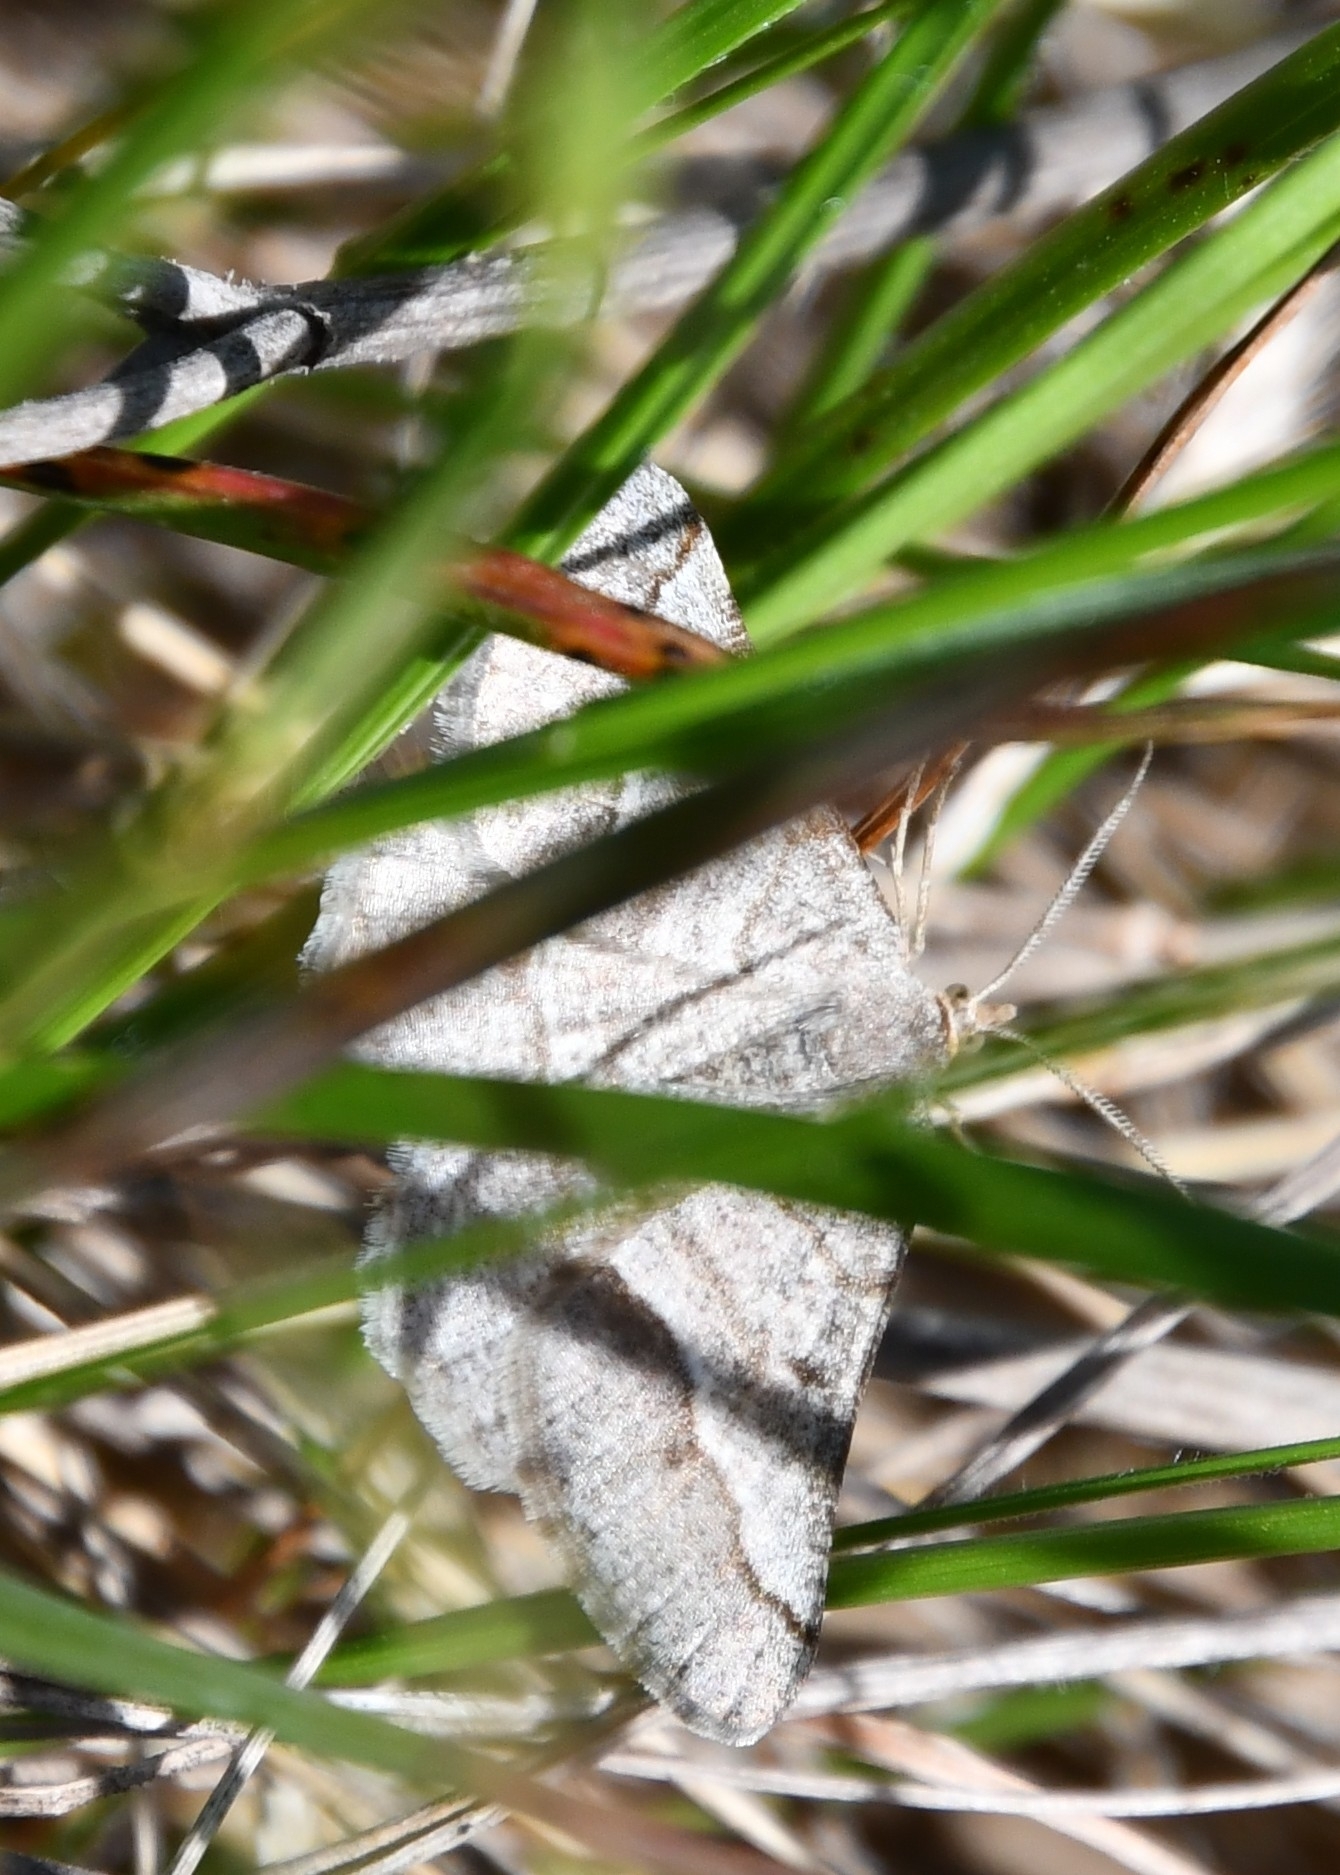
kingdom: Animalia
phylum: Arthropoda
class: Insecta
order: Lepidoptera
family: Geometridae
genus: Tephrina
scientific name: Tephrina murinaria
